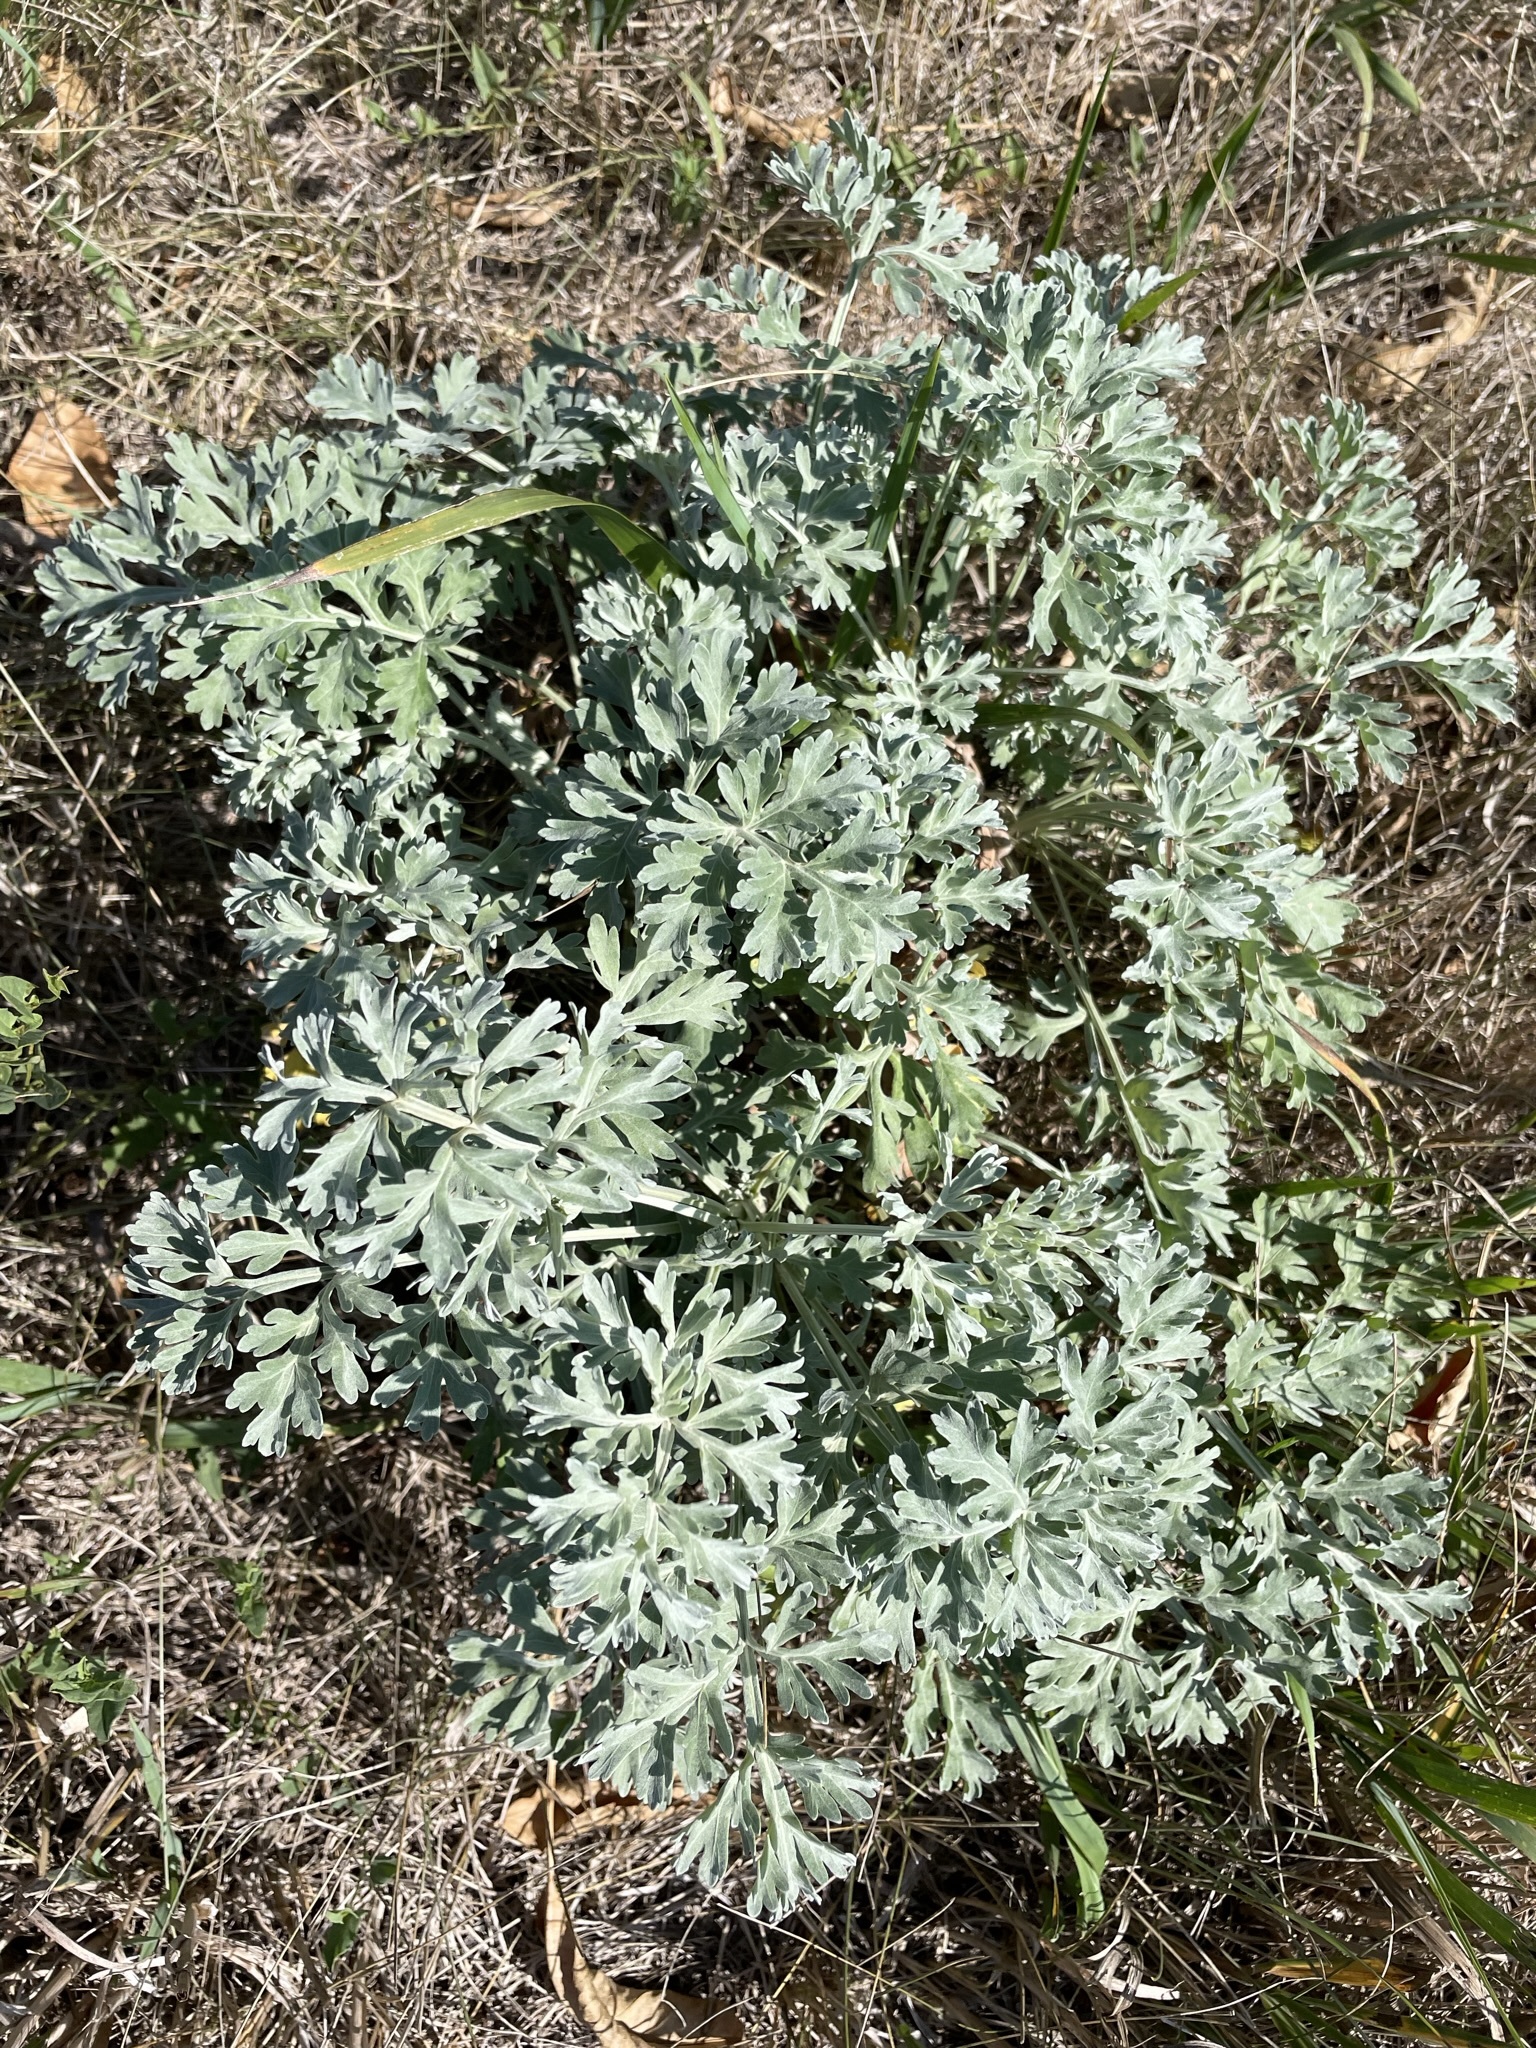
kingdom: Plantae
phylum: Tracheophyta
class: Magnoliopsida
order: Asterales
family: Asteraceae
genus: Artemisia
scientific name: Artemisia absinthium
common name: Wormwood
